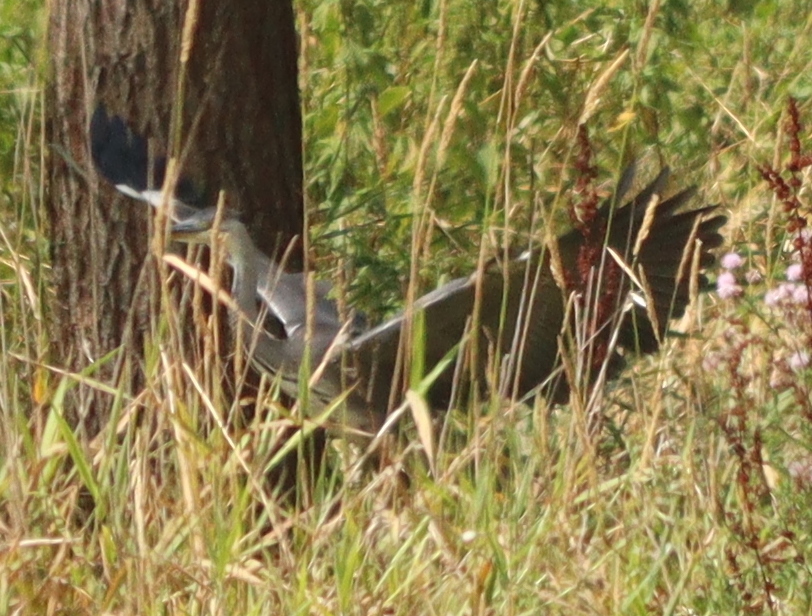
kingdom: Animalia
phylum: Chordata
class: Aves
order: Pelecaniformes
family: Ardeidae
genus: Ardea
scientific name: Ardea cinerea
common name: Grey heron
